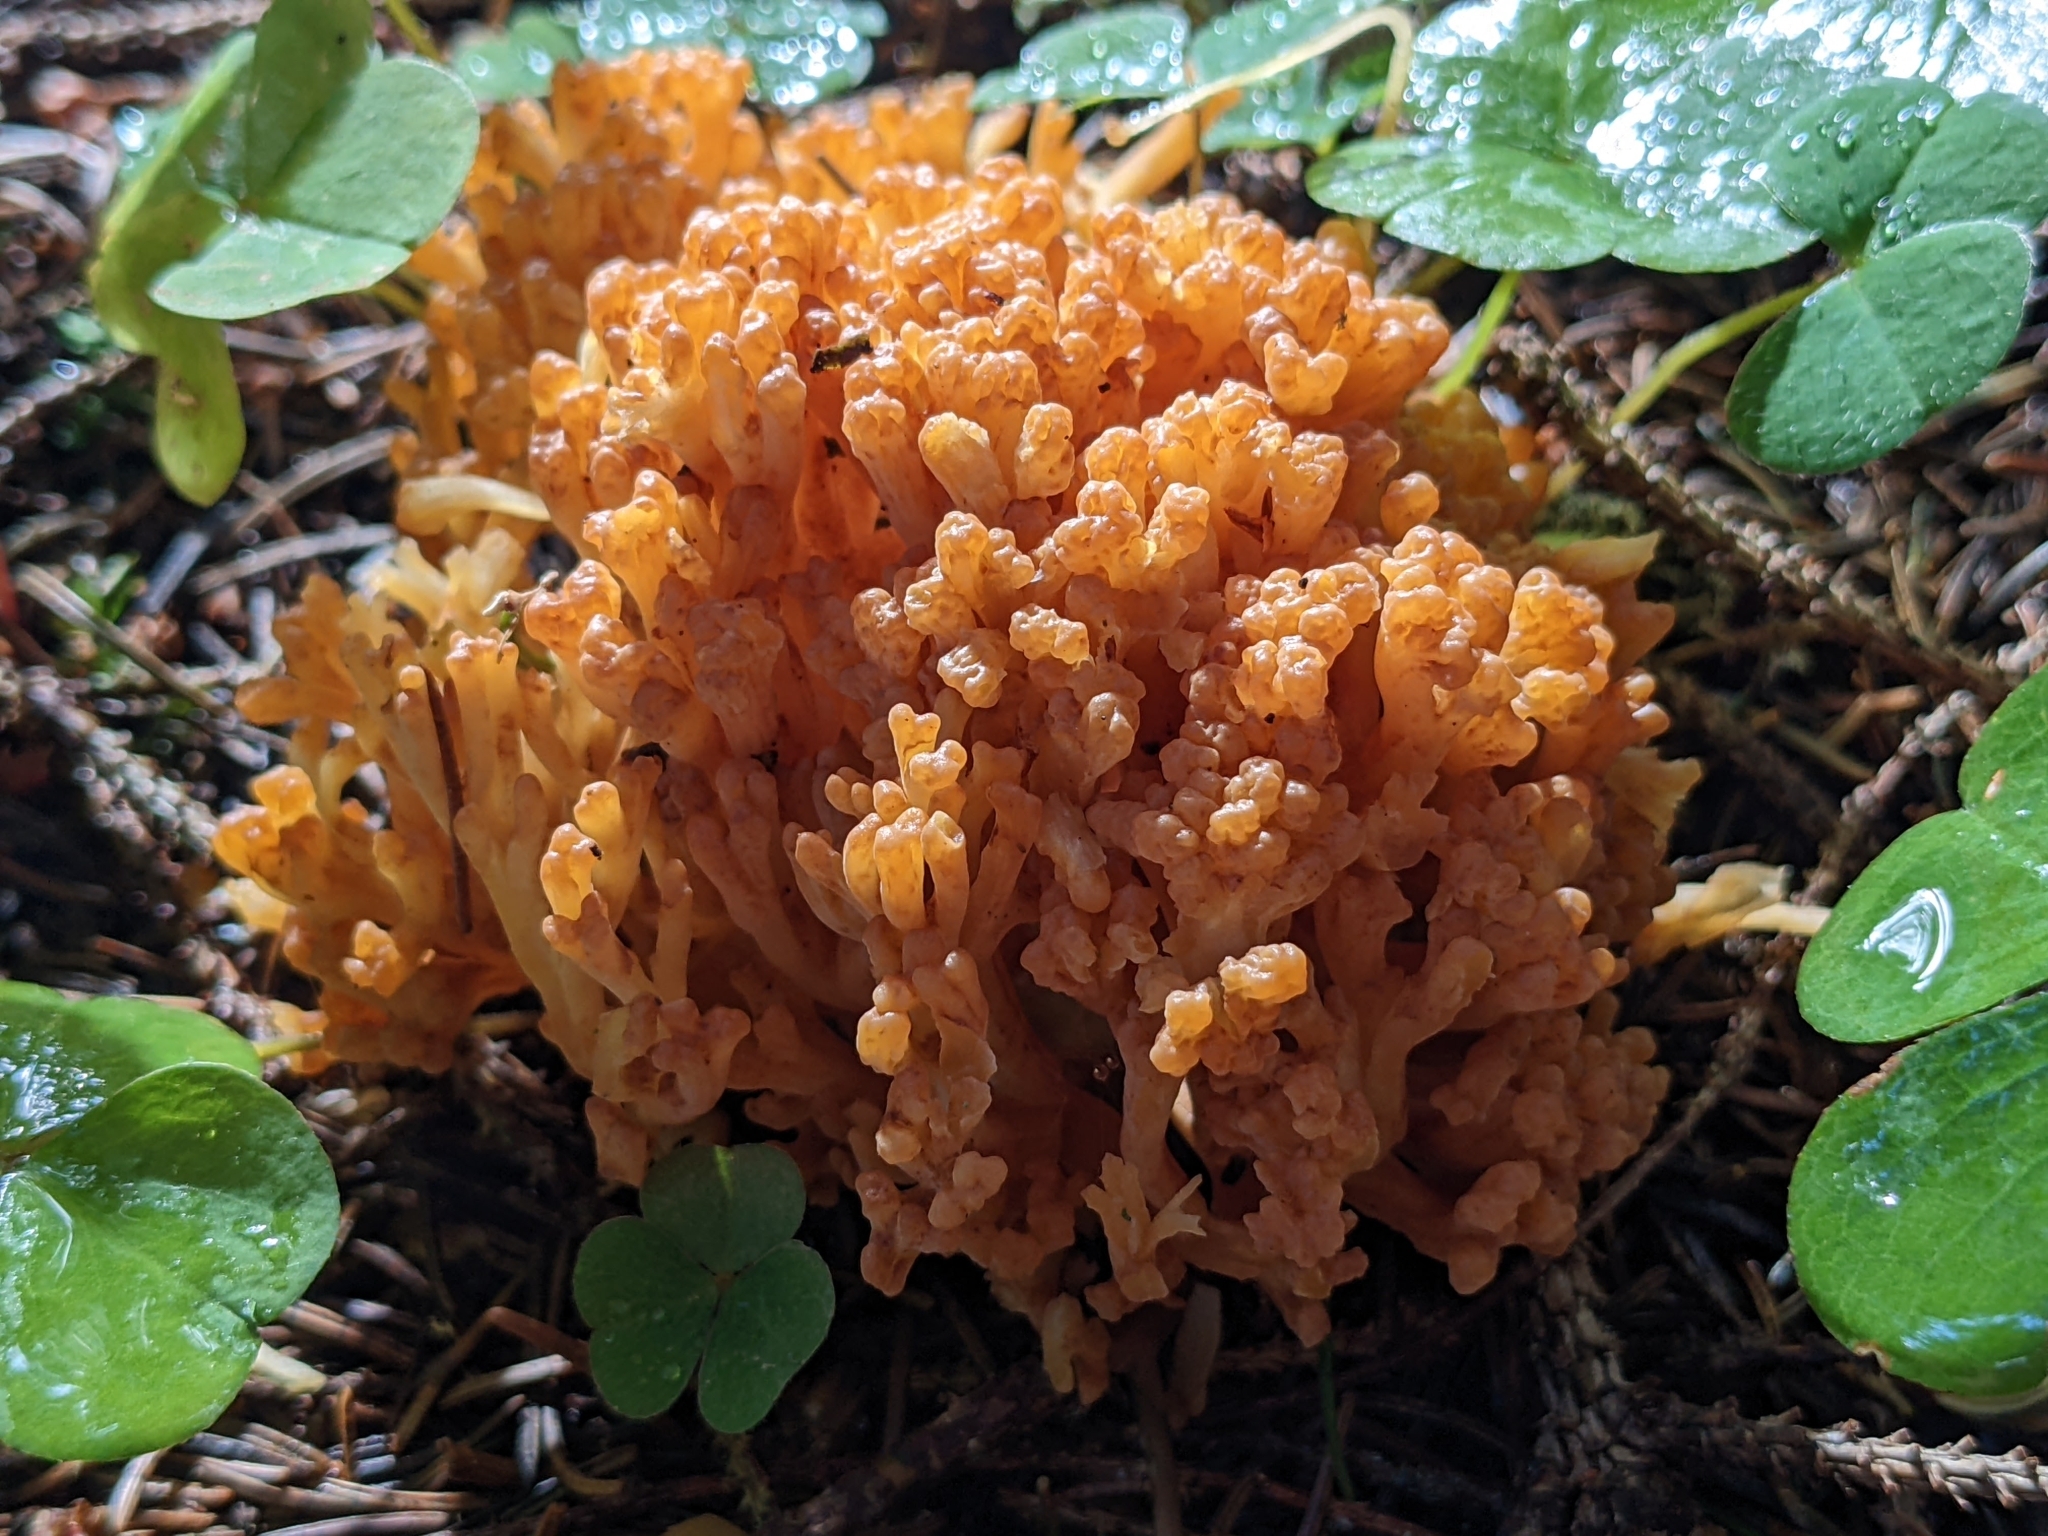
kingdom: Fungi
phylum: Basidiomycota
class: Agaricomycetes
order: Gomphales
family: Gomphaceae
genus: Ramaria
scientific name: Ramaria
